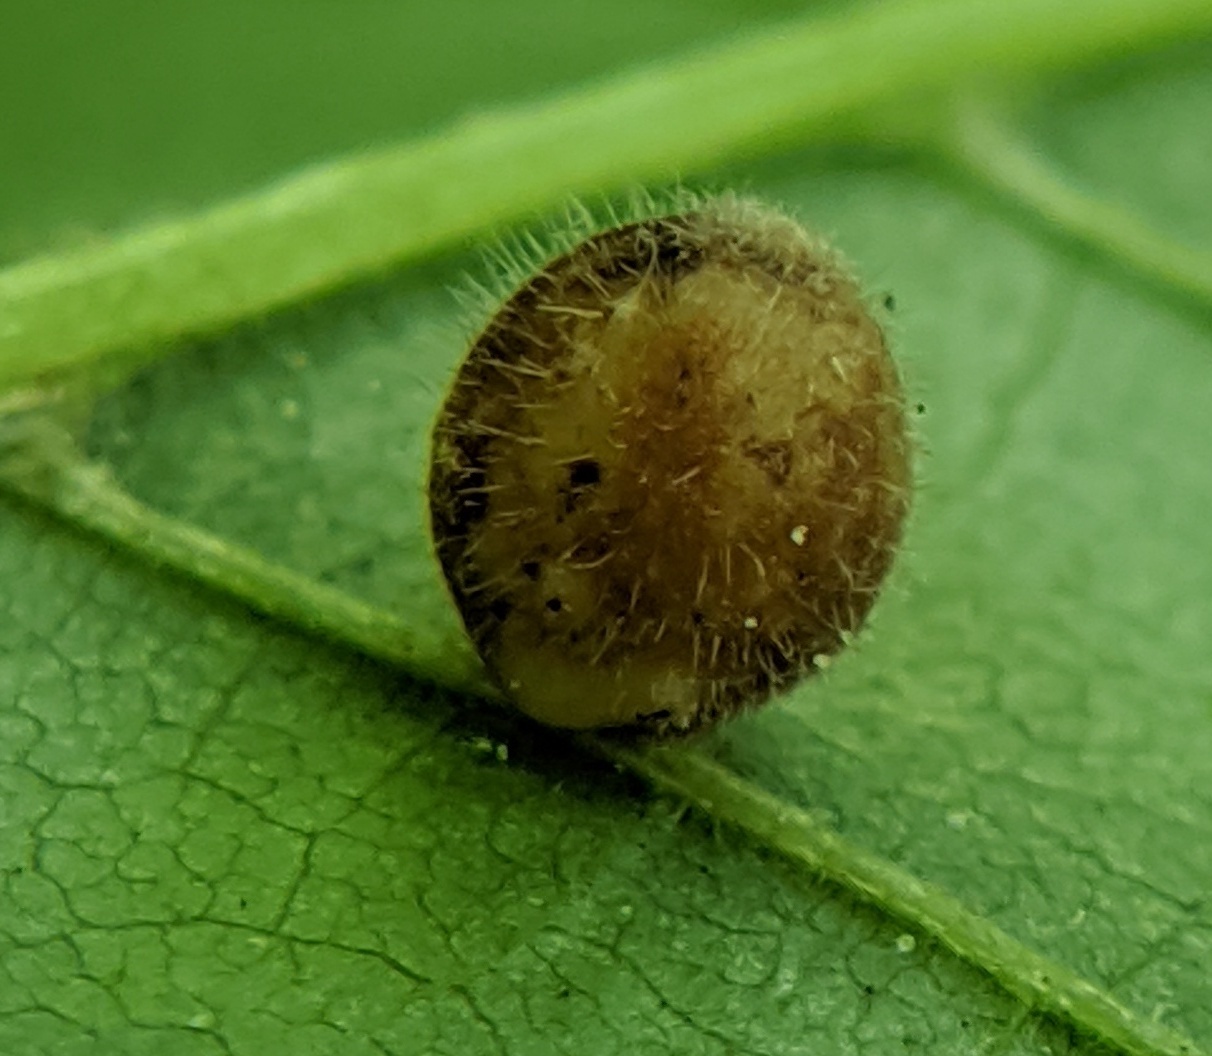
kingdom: Animalia
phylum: Arthropoda
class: Insecta
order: Diptera
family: Cecidomyiidae
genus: Caryomyia
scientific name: Caryomyia cilidolium
